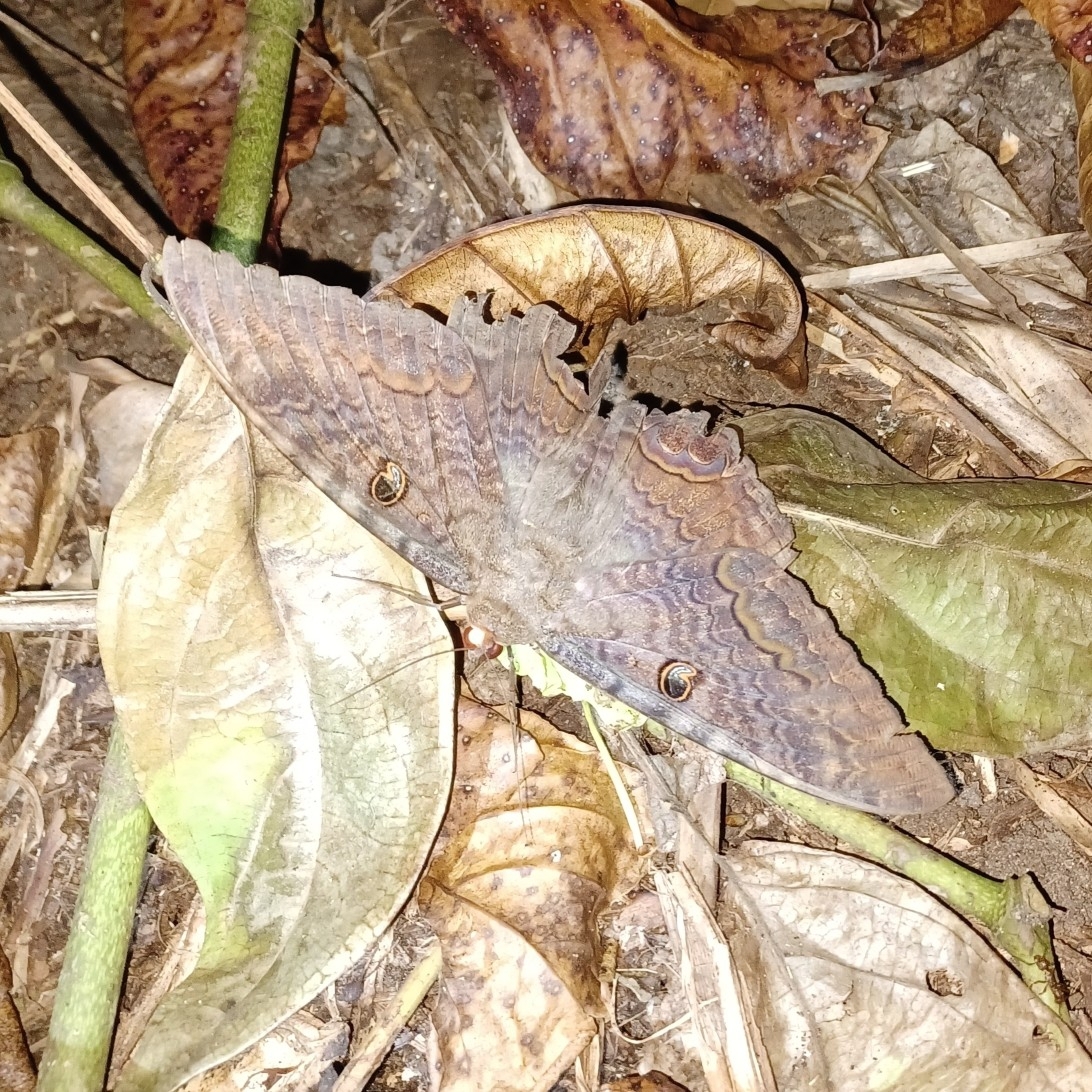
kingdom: Animalia
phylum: Arthropoda
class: Insecta
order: Lepidoptera
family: Erebidae
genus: Ascalapha
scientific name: Ascalapha odorata
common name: Black witch
